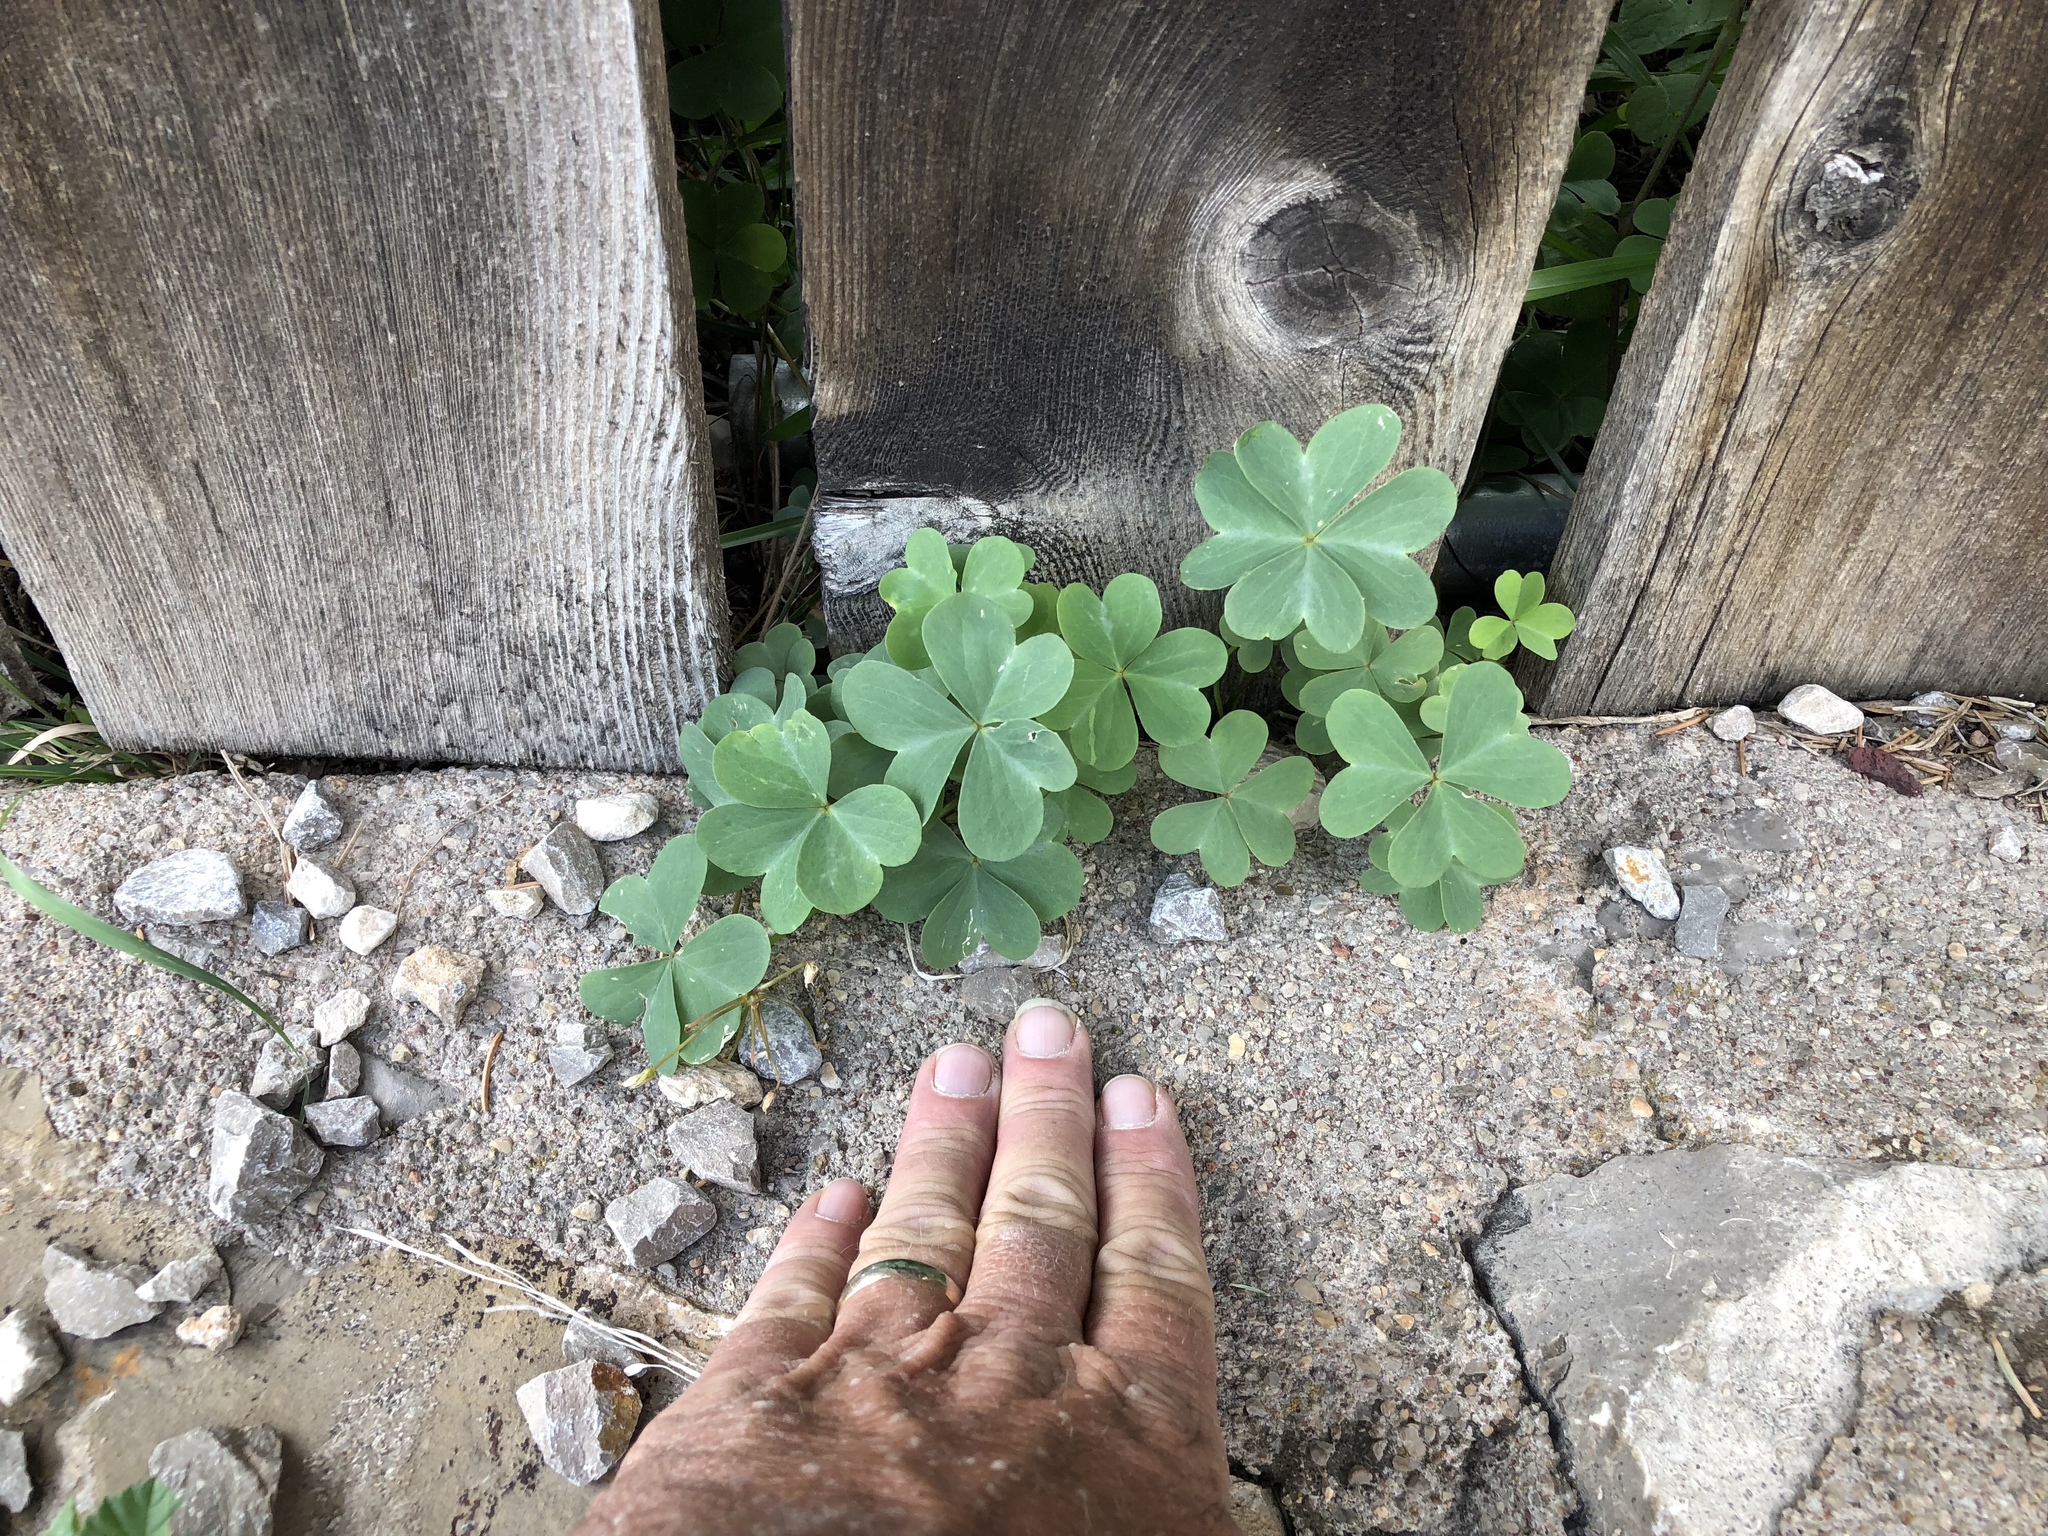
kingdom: Plantae
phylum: Tracheophyta
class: Magnoliopsida
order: Oxalidales
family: Oxalidaceae
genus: Oxalis
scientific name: Oxalis caerulea
